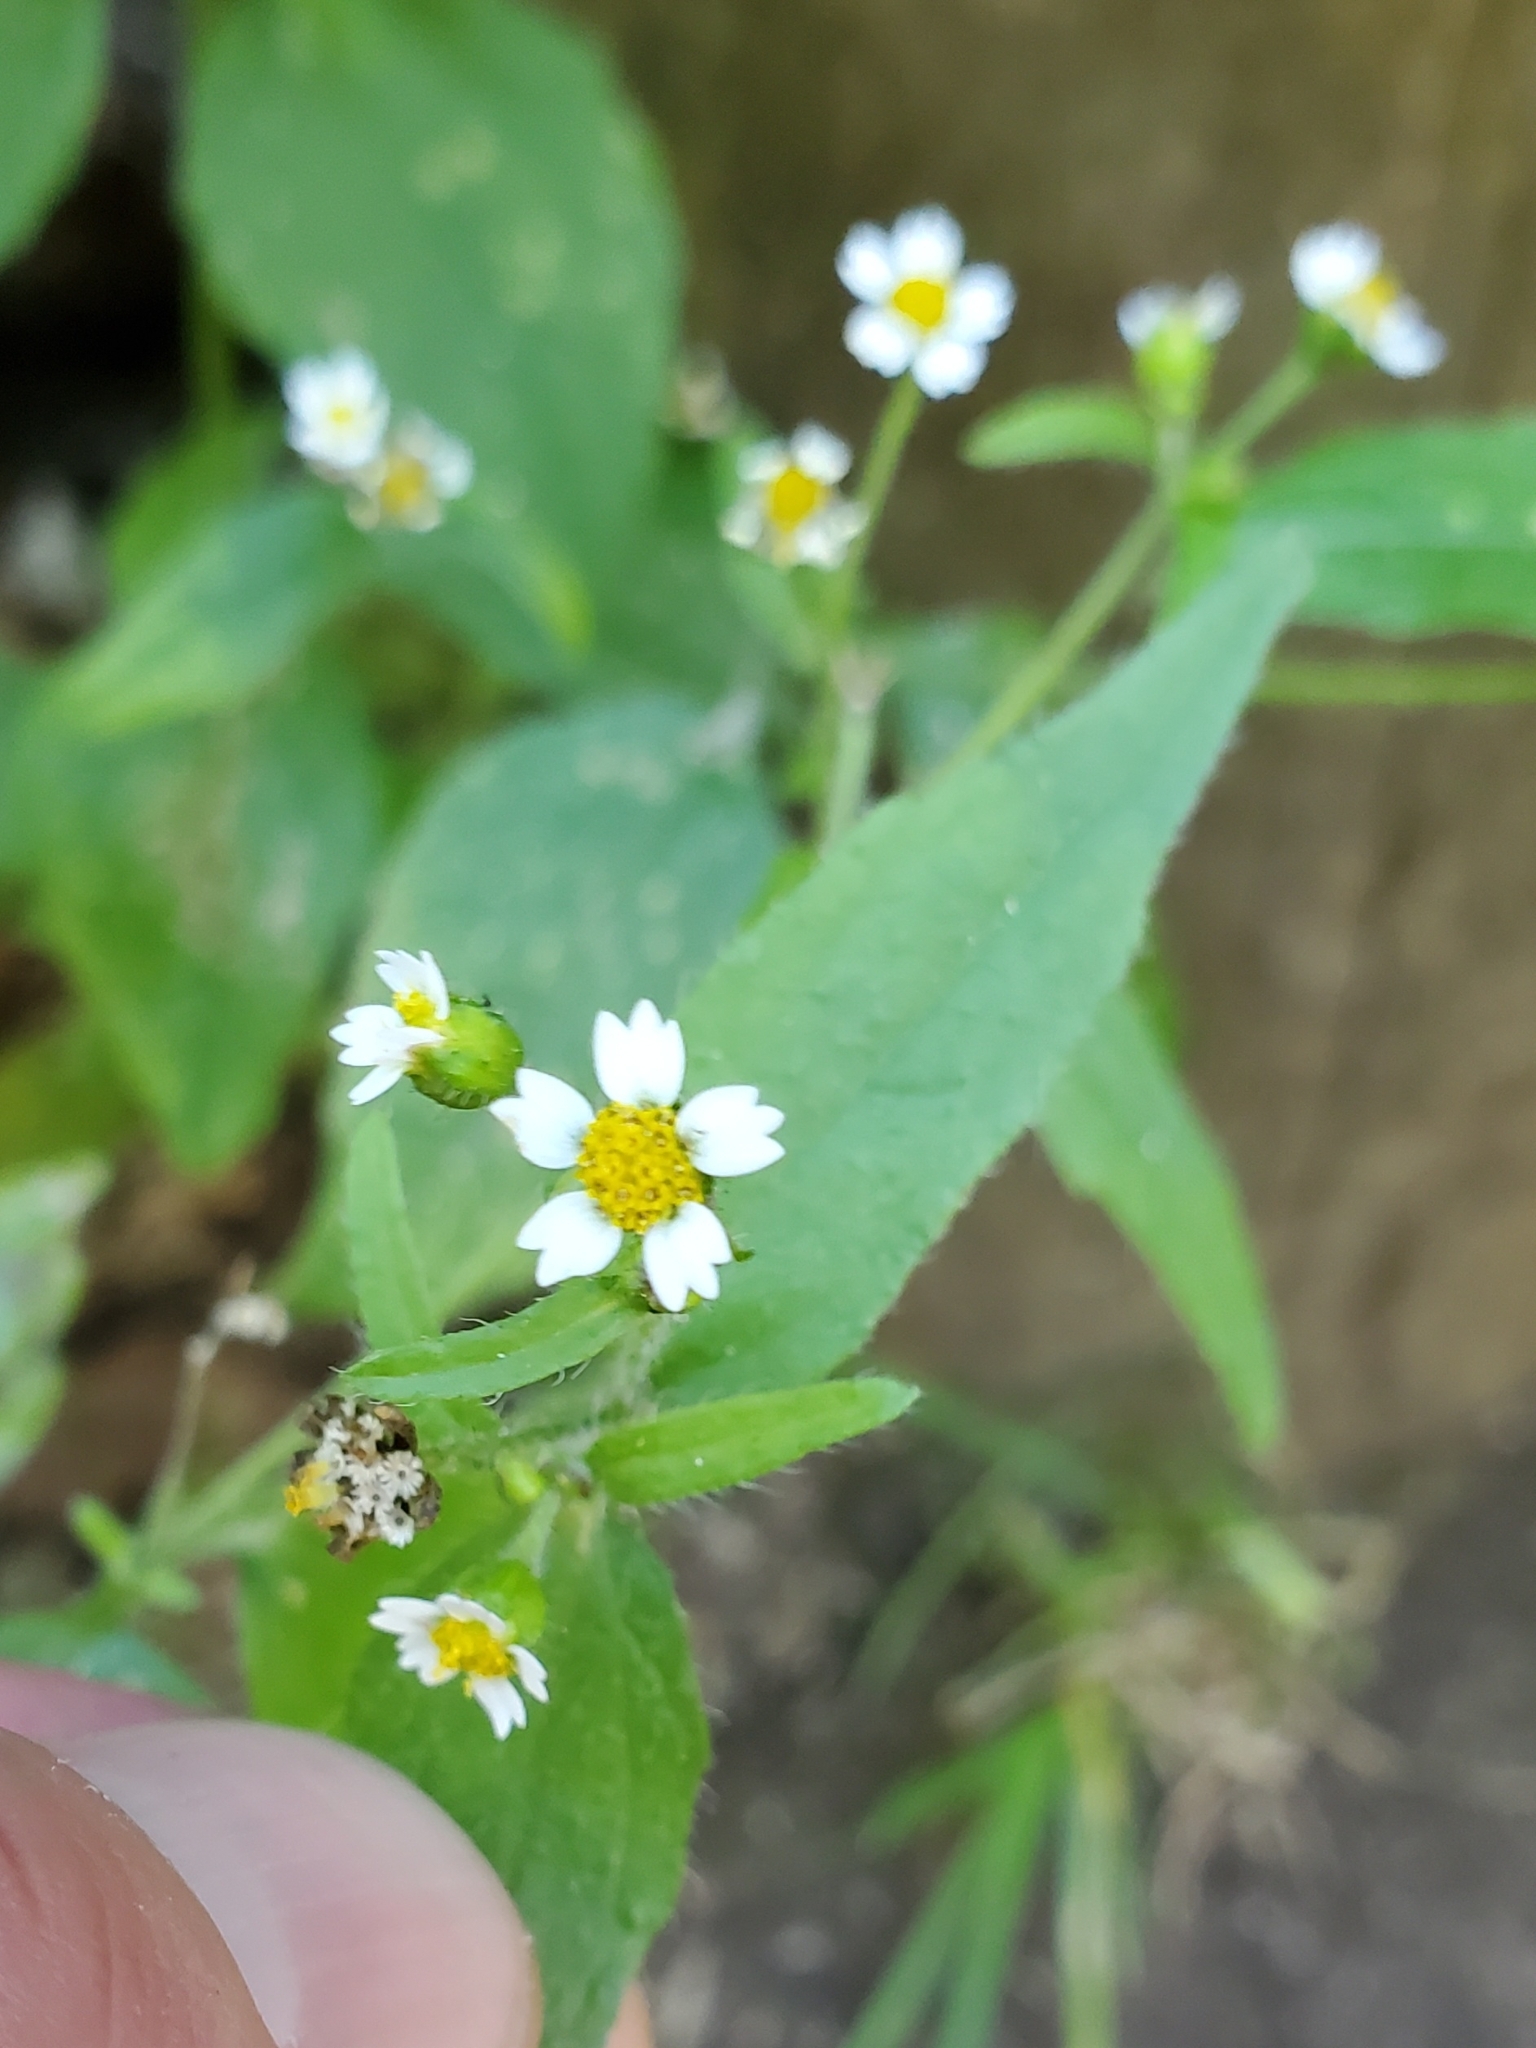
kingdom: Plantae
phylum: Tracheophyta
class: Magnoliopsida
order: Asterales
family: Asteraceae
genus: Galinsoga
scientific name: Galinsoga quadriradiata
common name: Shaggy soldier
